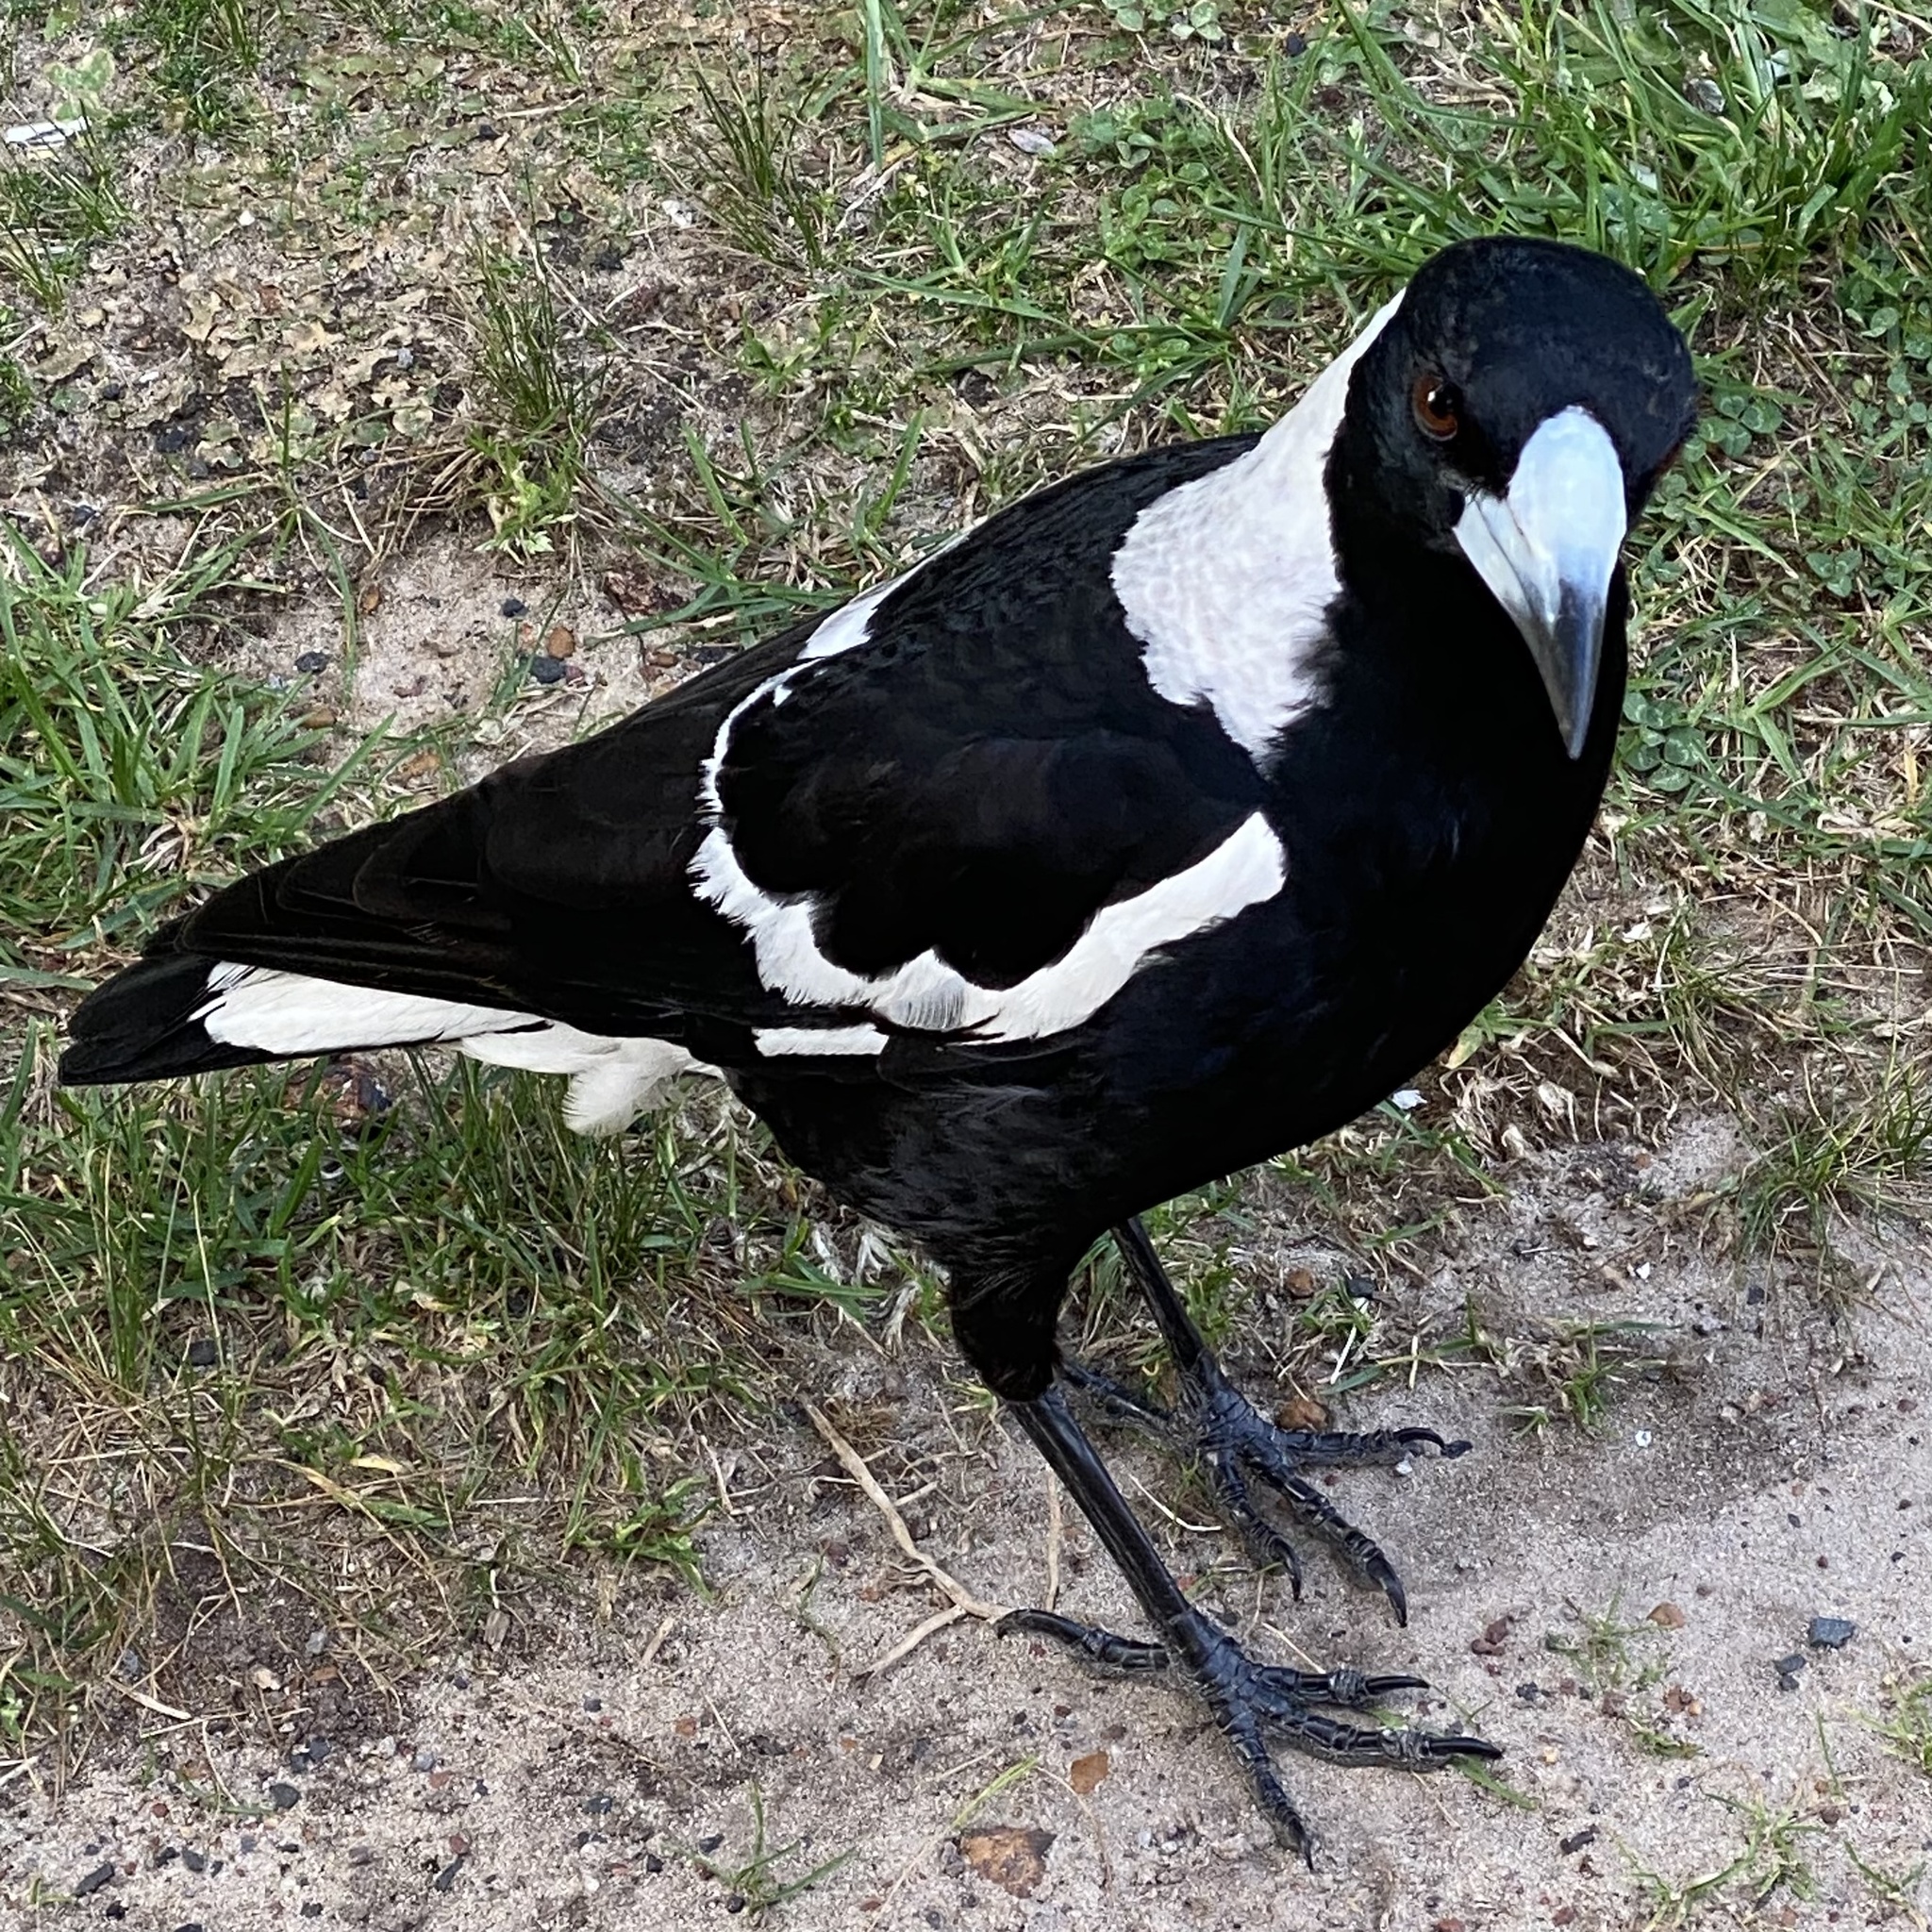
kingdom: Animalia
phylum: Chordata
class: Aves
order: Passeriformes
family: Cracticidae
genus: Gymnorhina
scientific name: Gymnorhina tibicen
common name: Australian magpie
